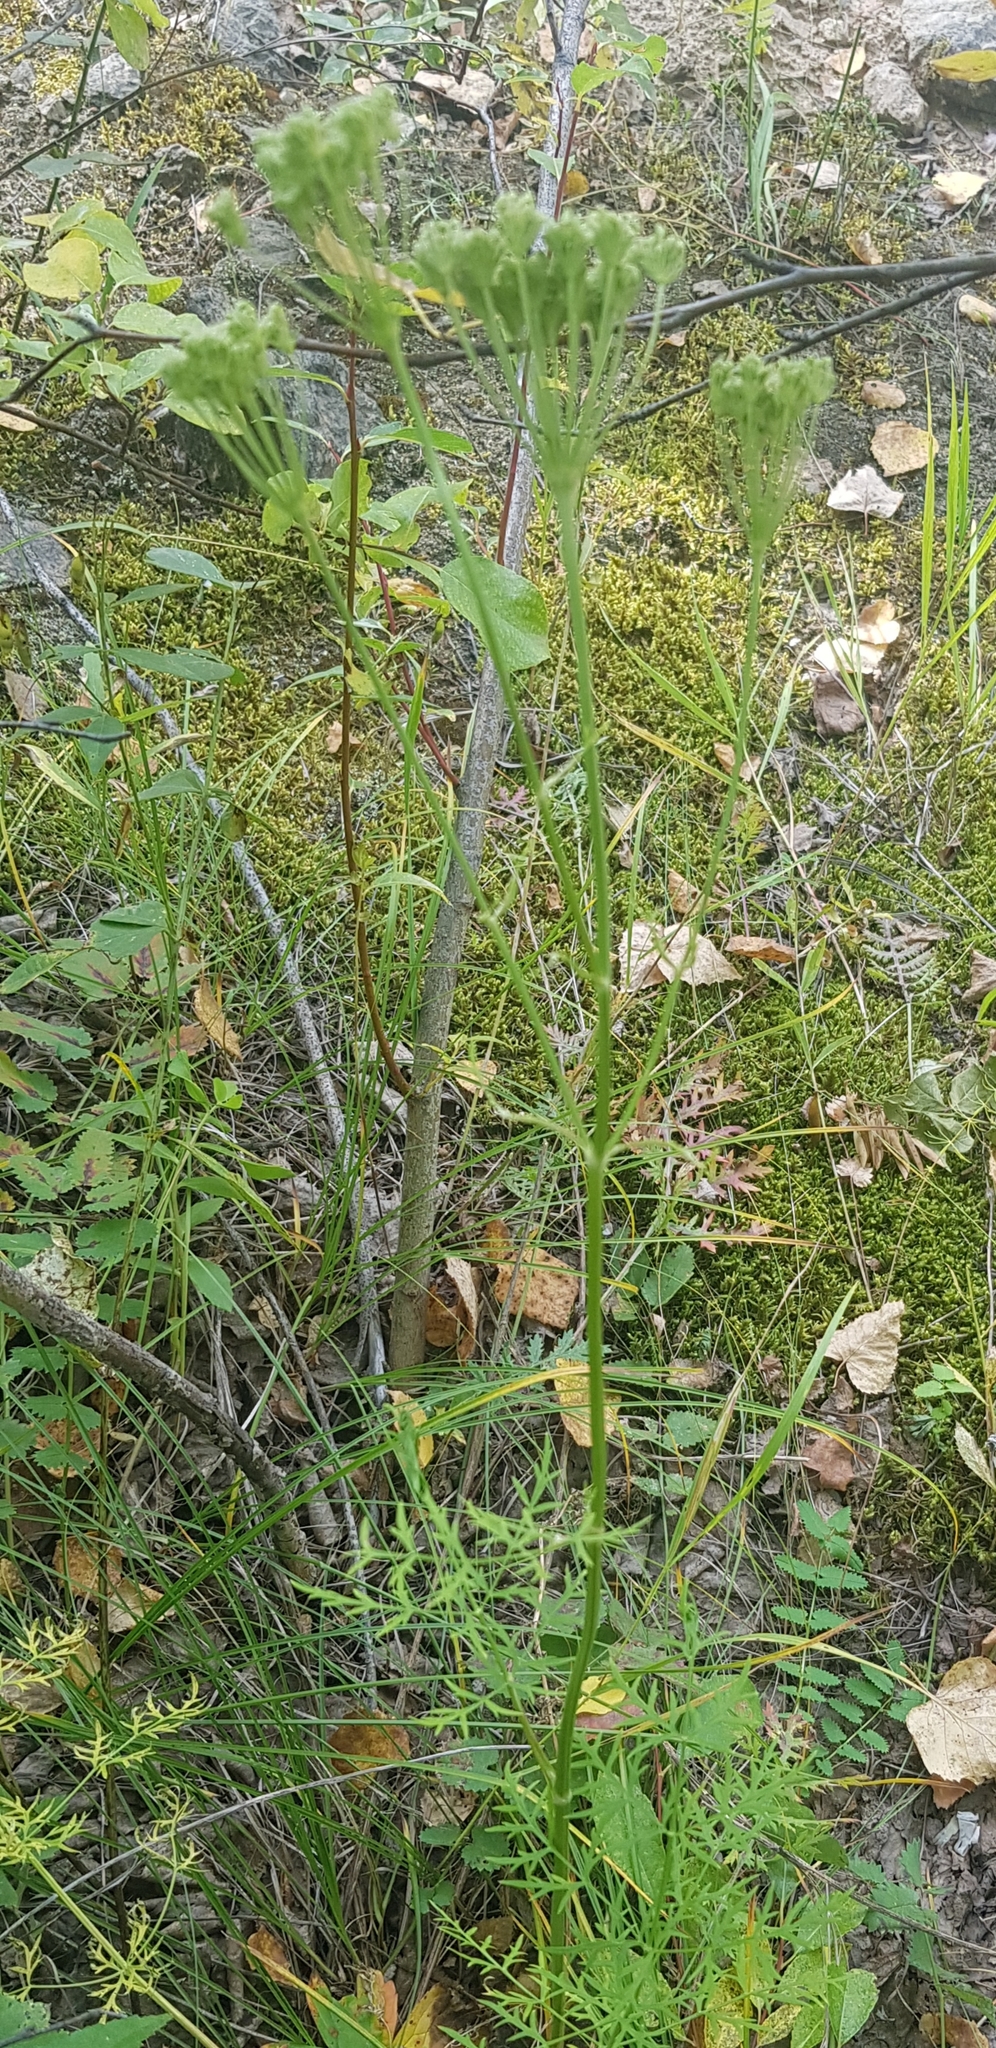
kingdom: Plantae
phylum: Tracheophyta
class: Magnoliopsida
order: Apiales
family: Apiaceae
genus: Pleurospermum
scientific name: Pleurospermum uralense
